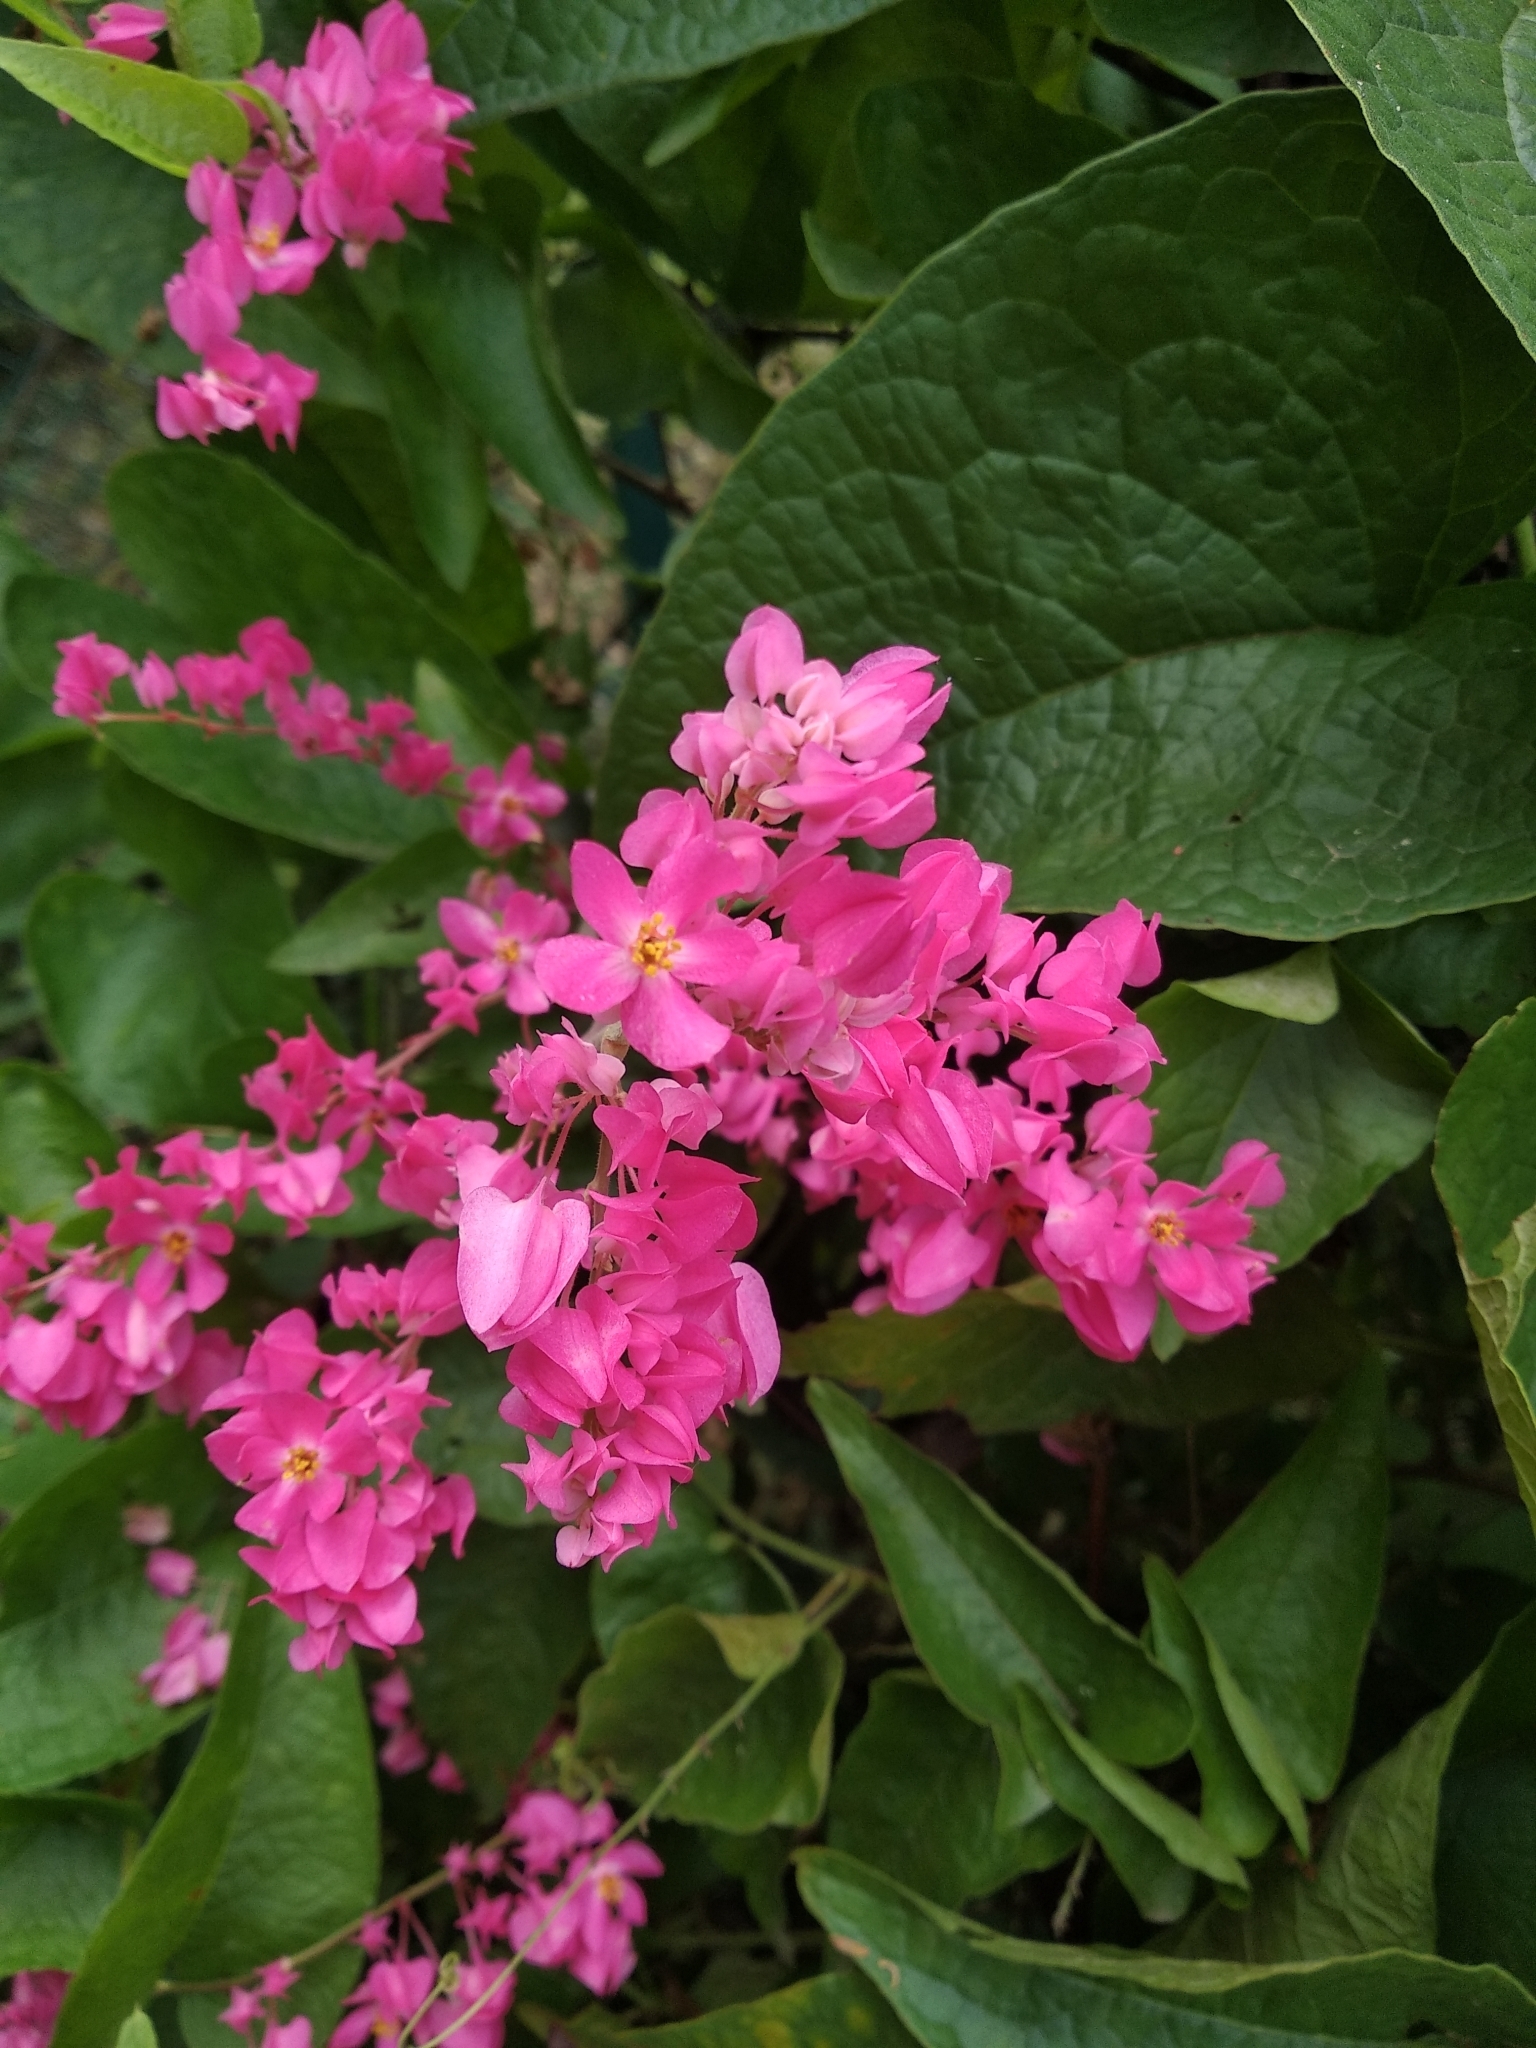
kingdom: Plantae
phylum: Tracheophyta
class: Magnoliopsida
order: Caryophyllales
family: Polygonaceae
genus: Antigonon
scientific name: Antigonon leptopus
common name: Coral vine
